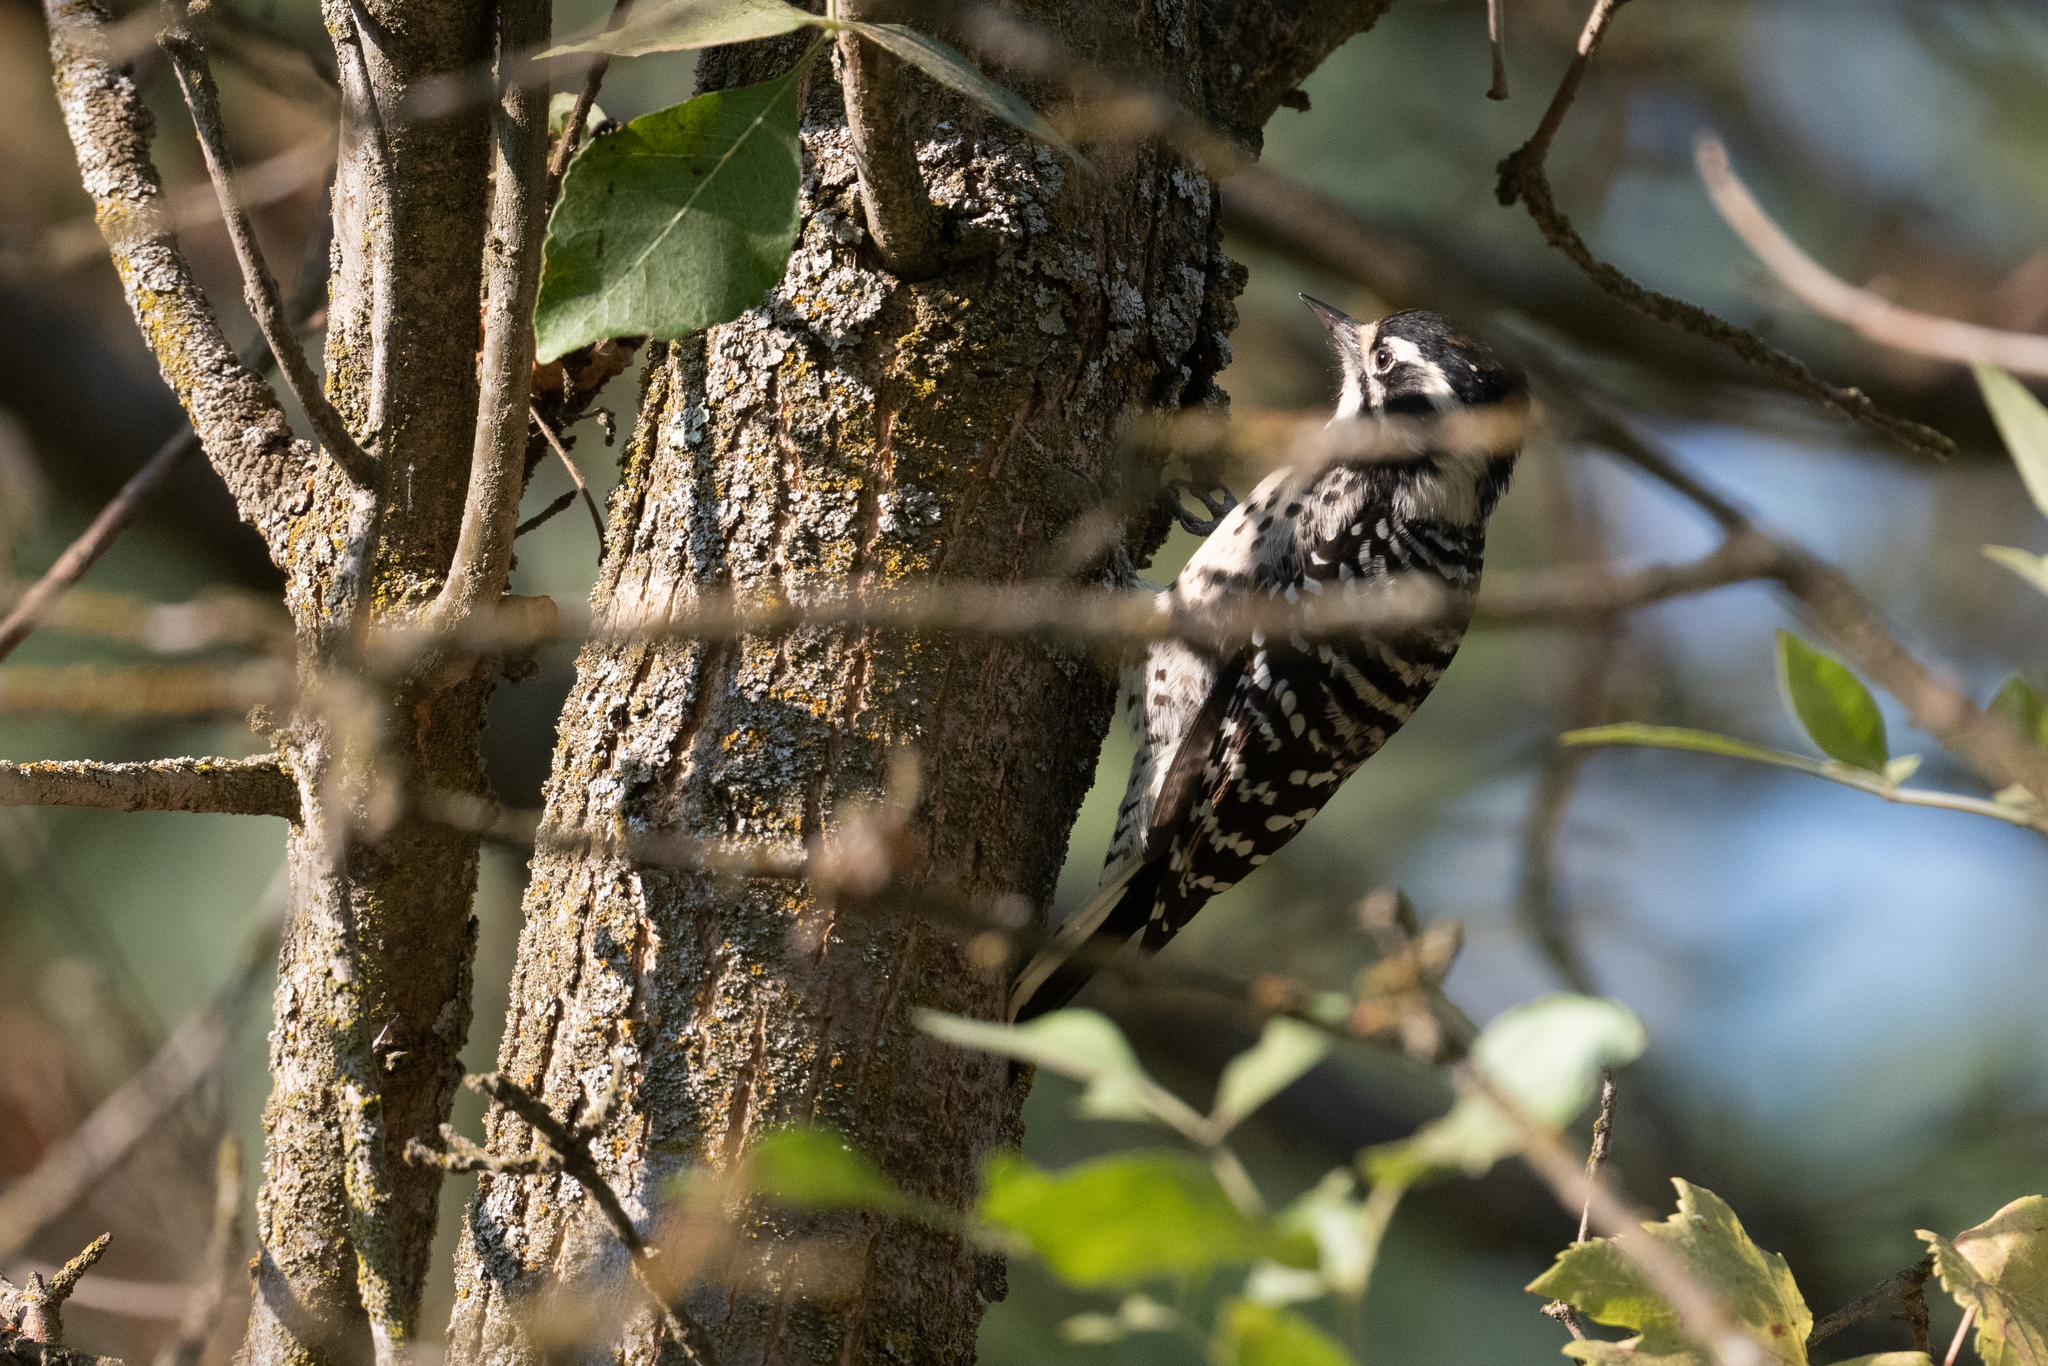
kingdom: Animalia
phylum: Chordata
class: Aves
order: Piciformes
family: Picidae
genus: Dryobates
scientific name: Dryobates nuttallii
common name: Nuttall's woodpecker
